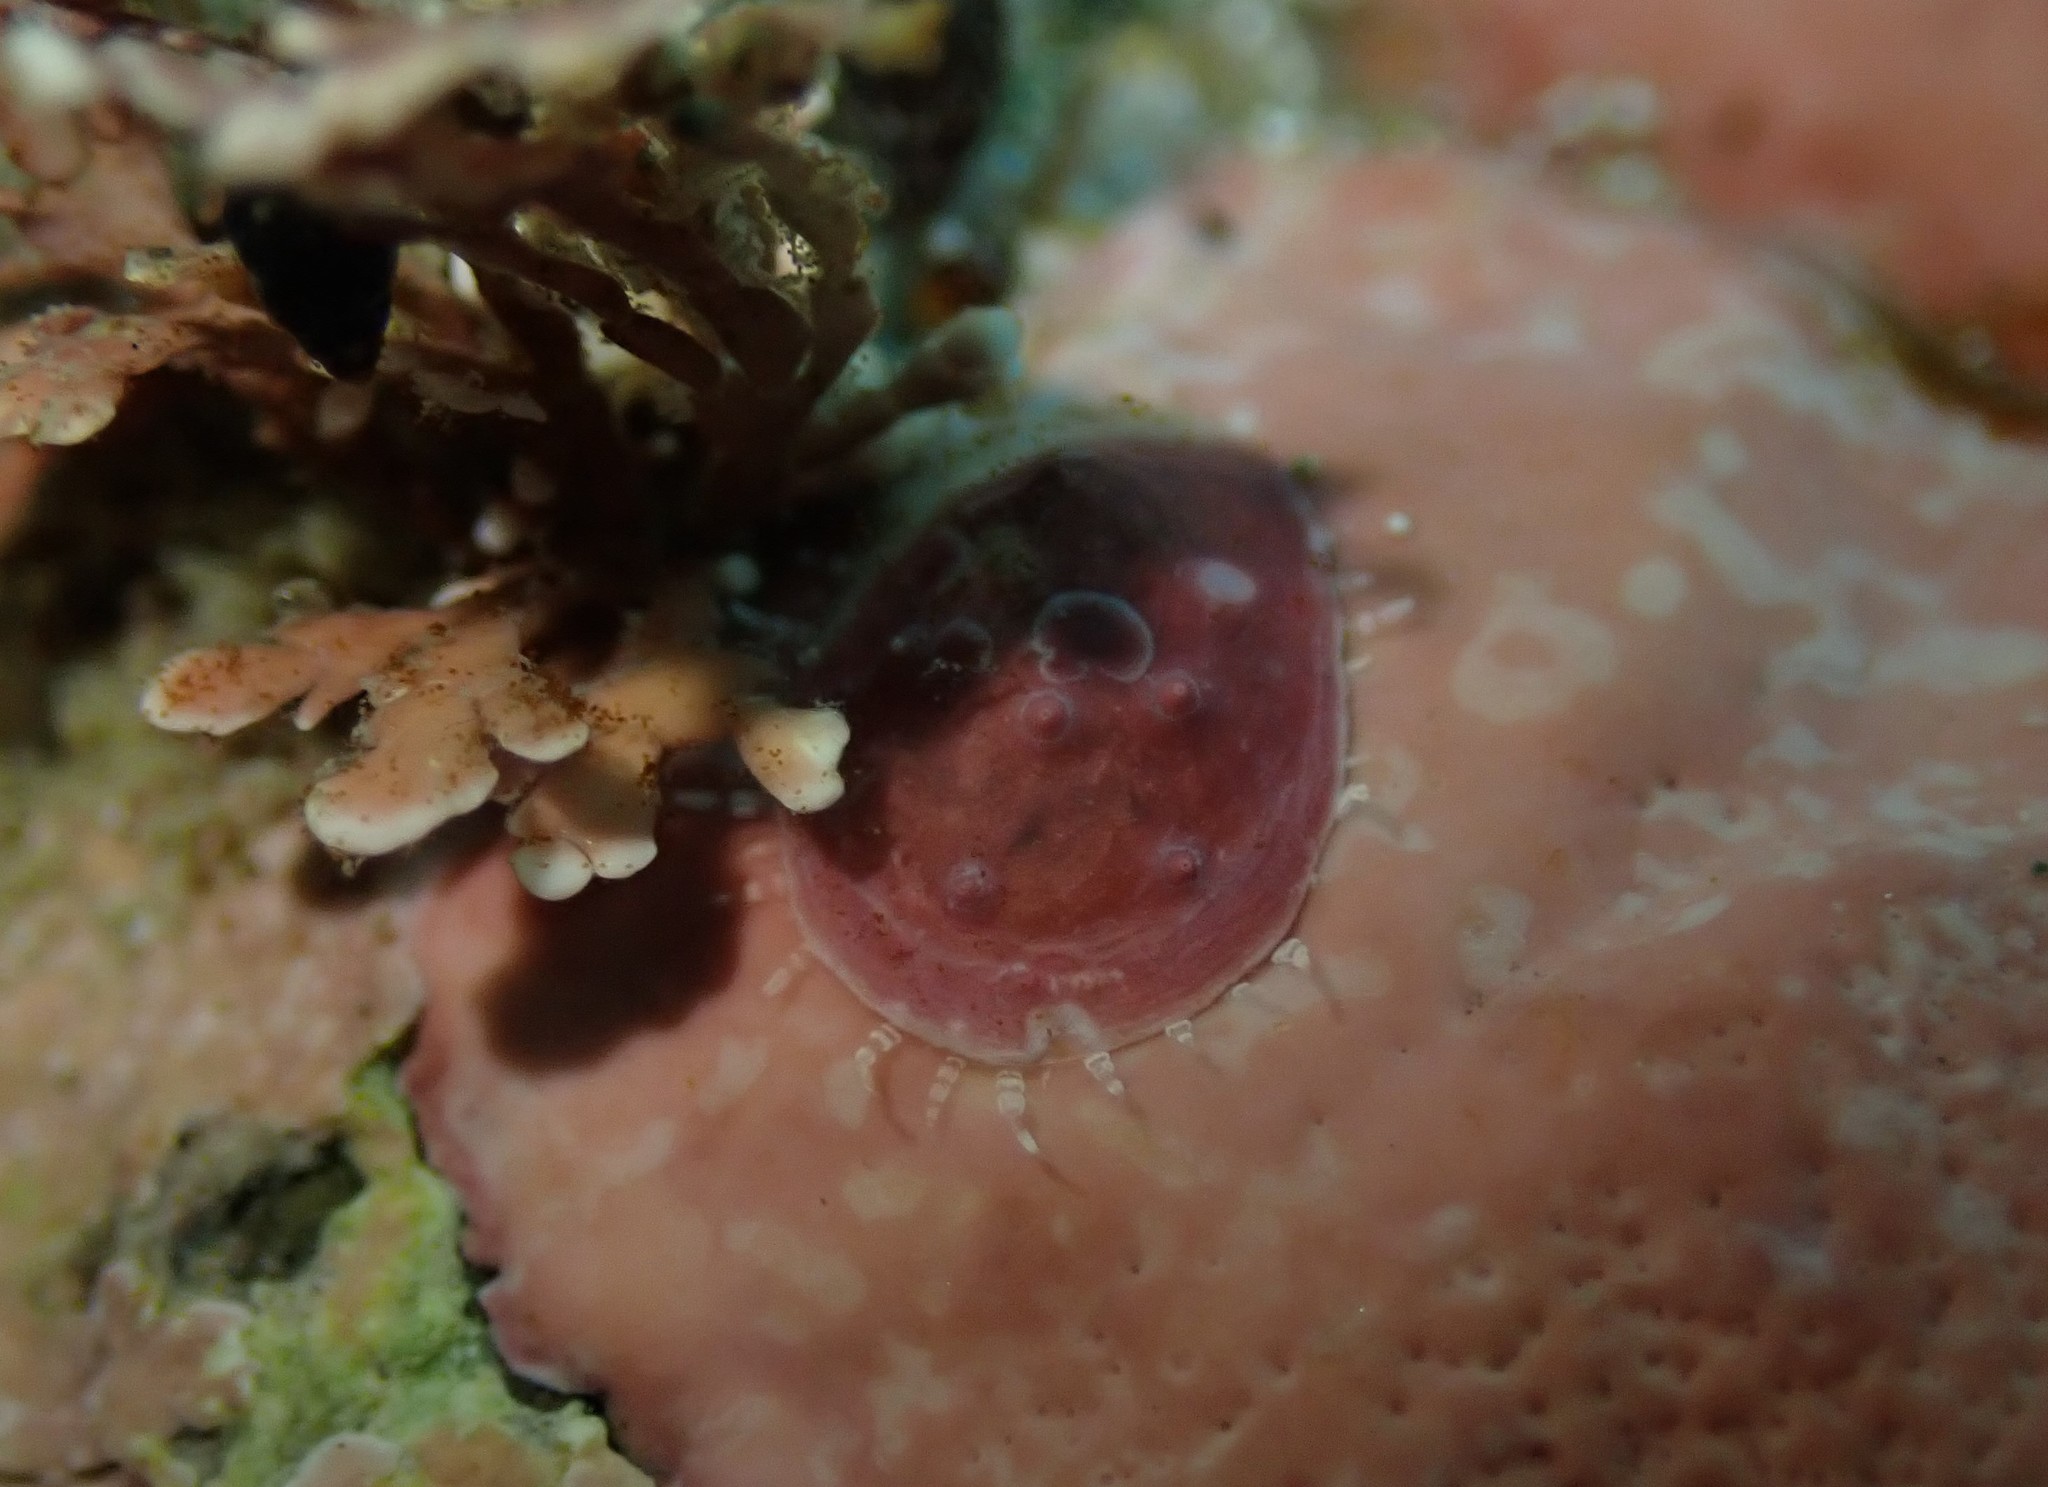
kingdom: Animalia
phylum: Mollusca
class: Gastropoda
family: Nacellidae
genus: Cellana
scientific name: Cellana stellifera
